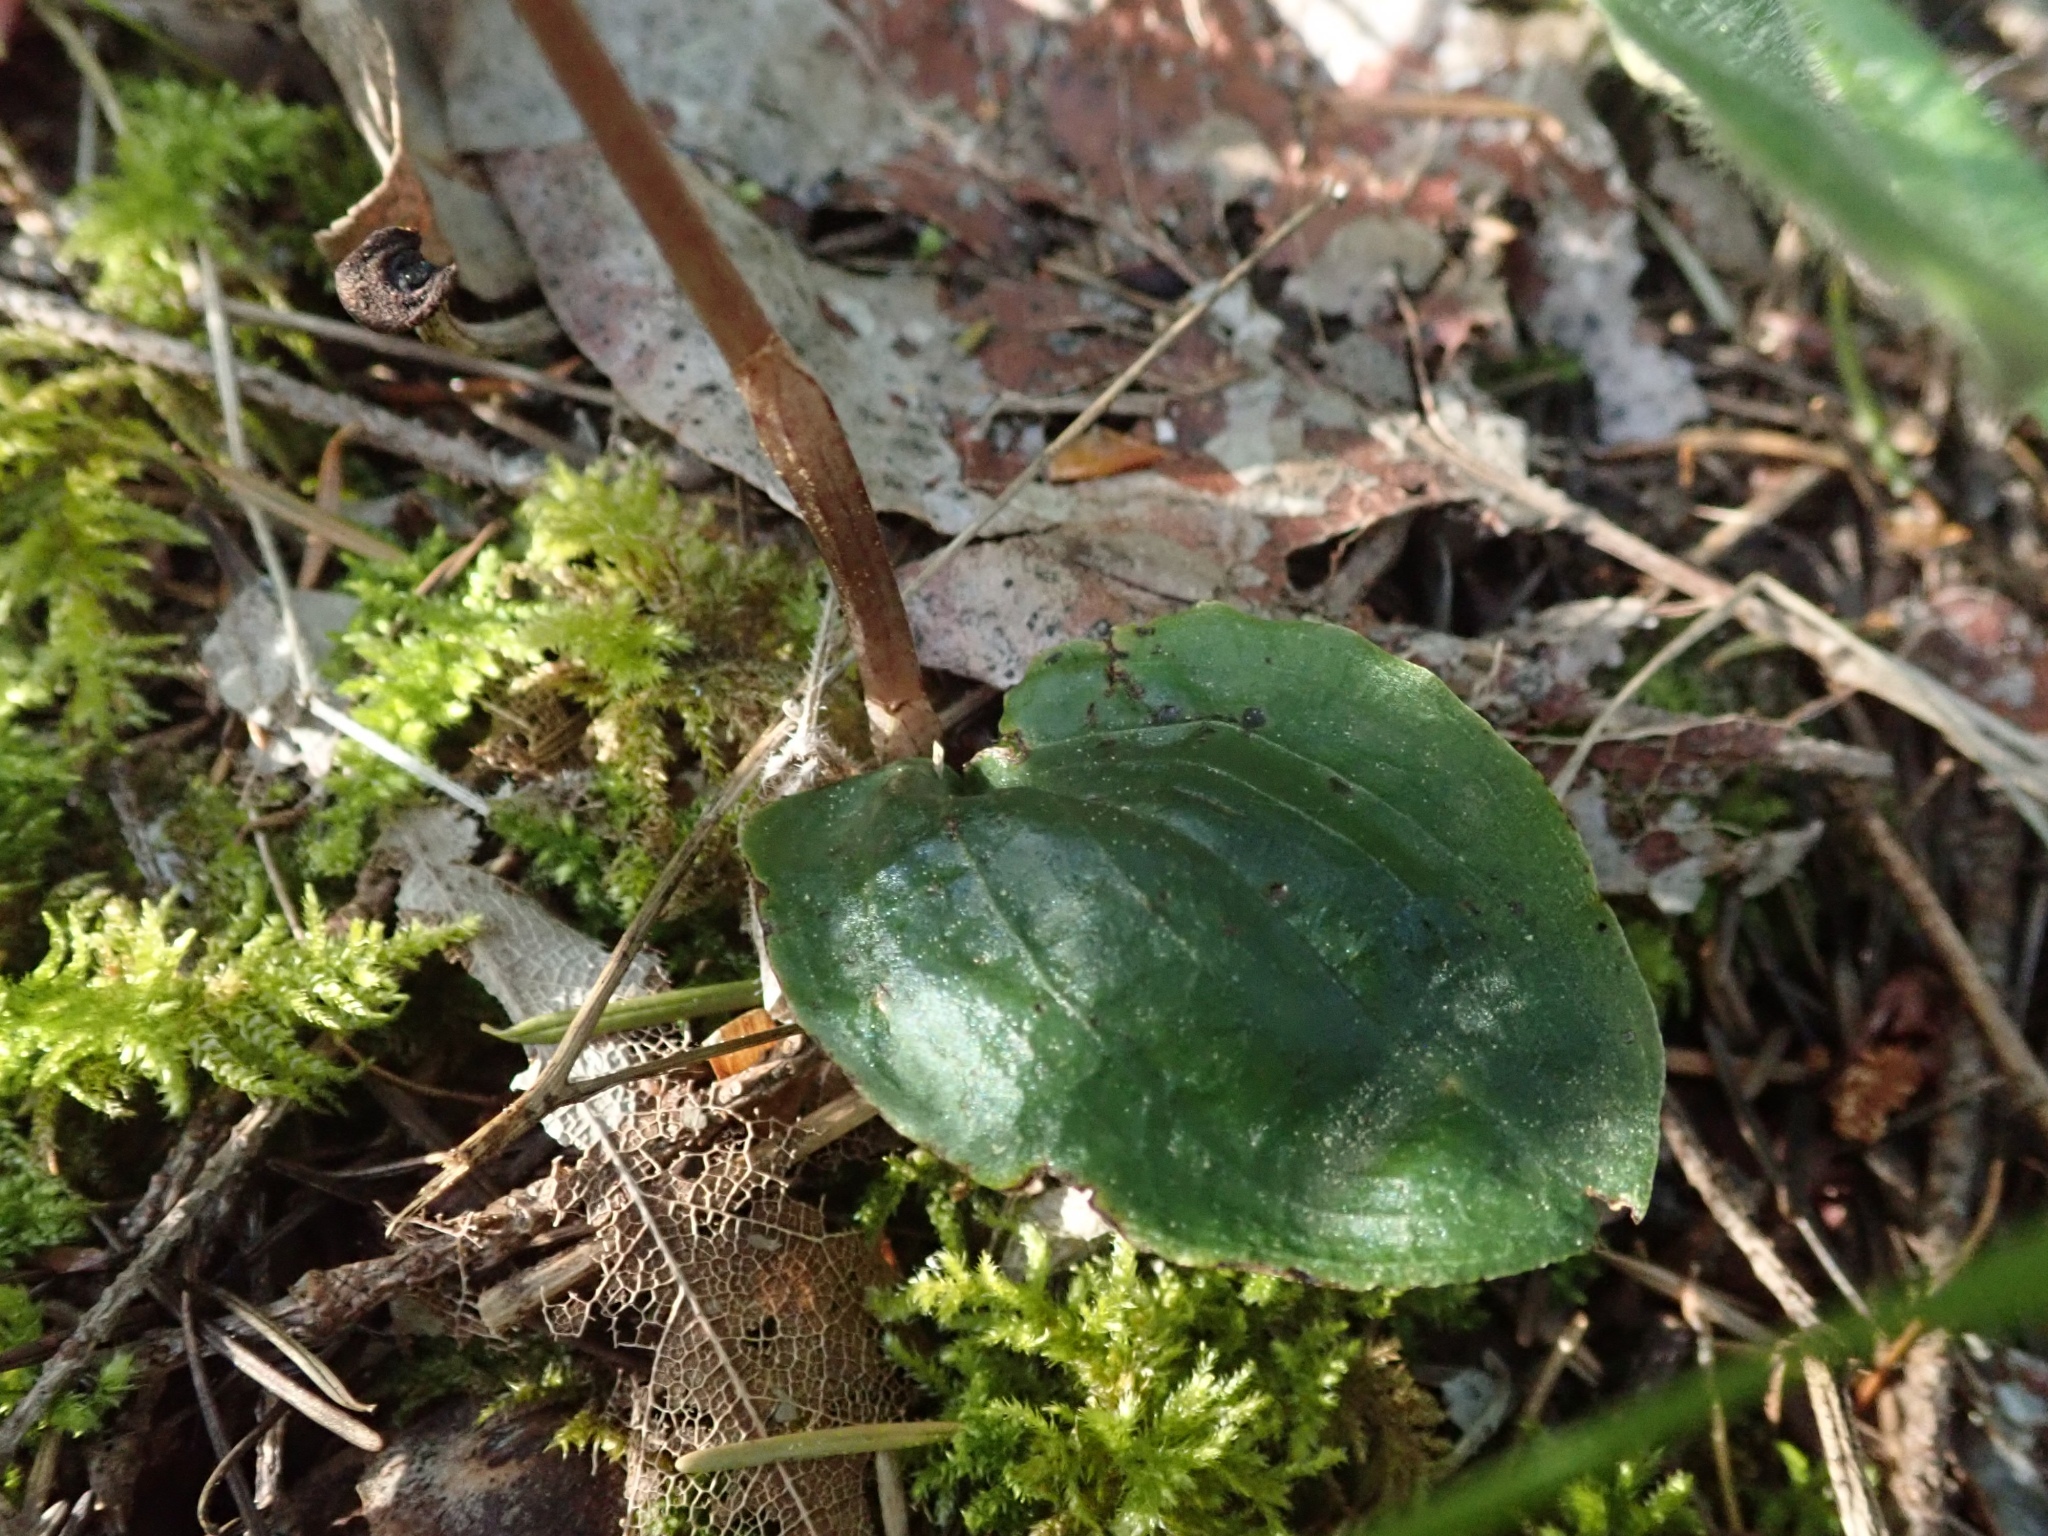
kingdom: Plantae
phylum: Tracheophyta
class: Liliopsida
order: Asparagales
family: Orchidaceae
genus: Calypso
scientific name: Calypso bulbosa
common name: Calypso
